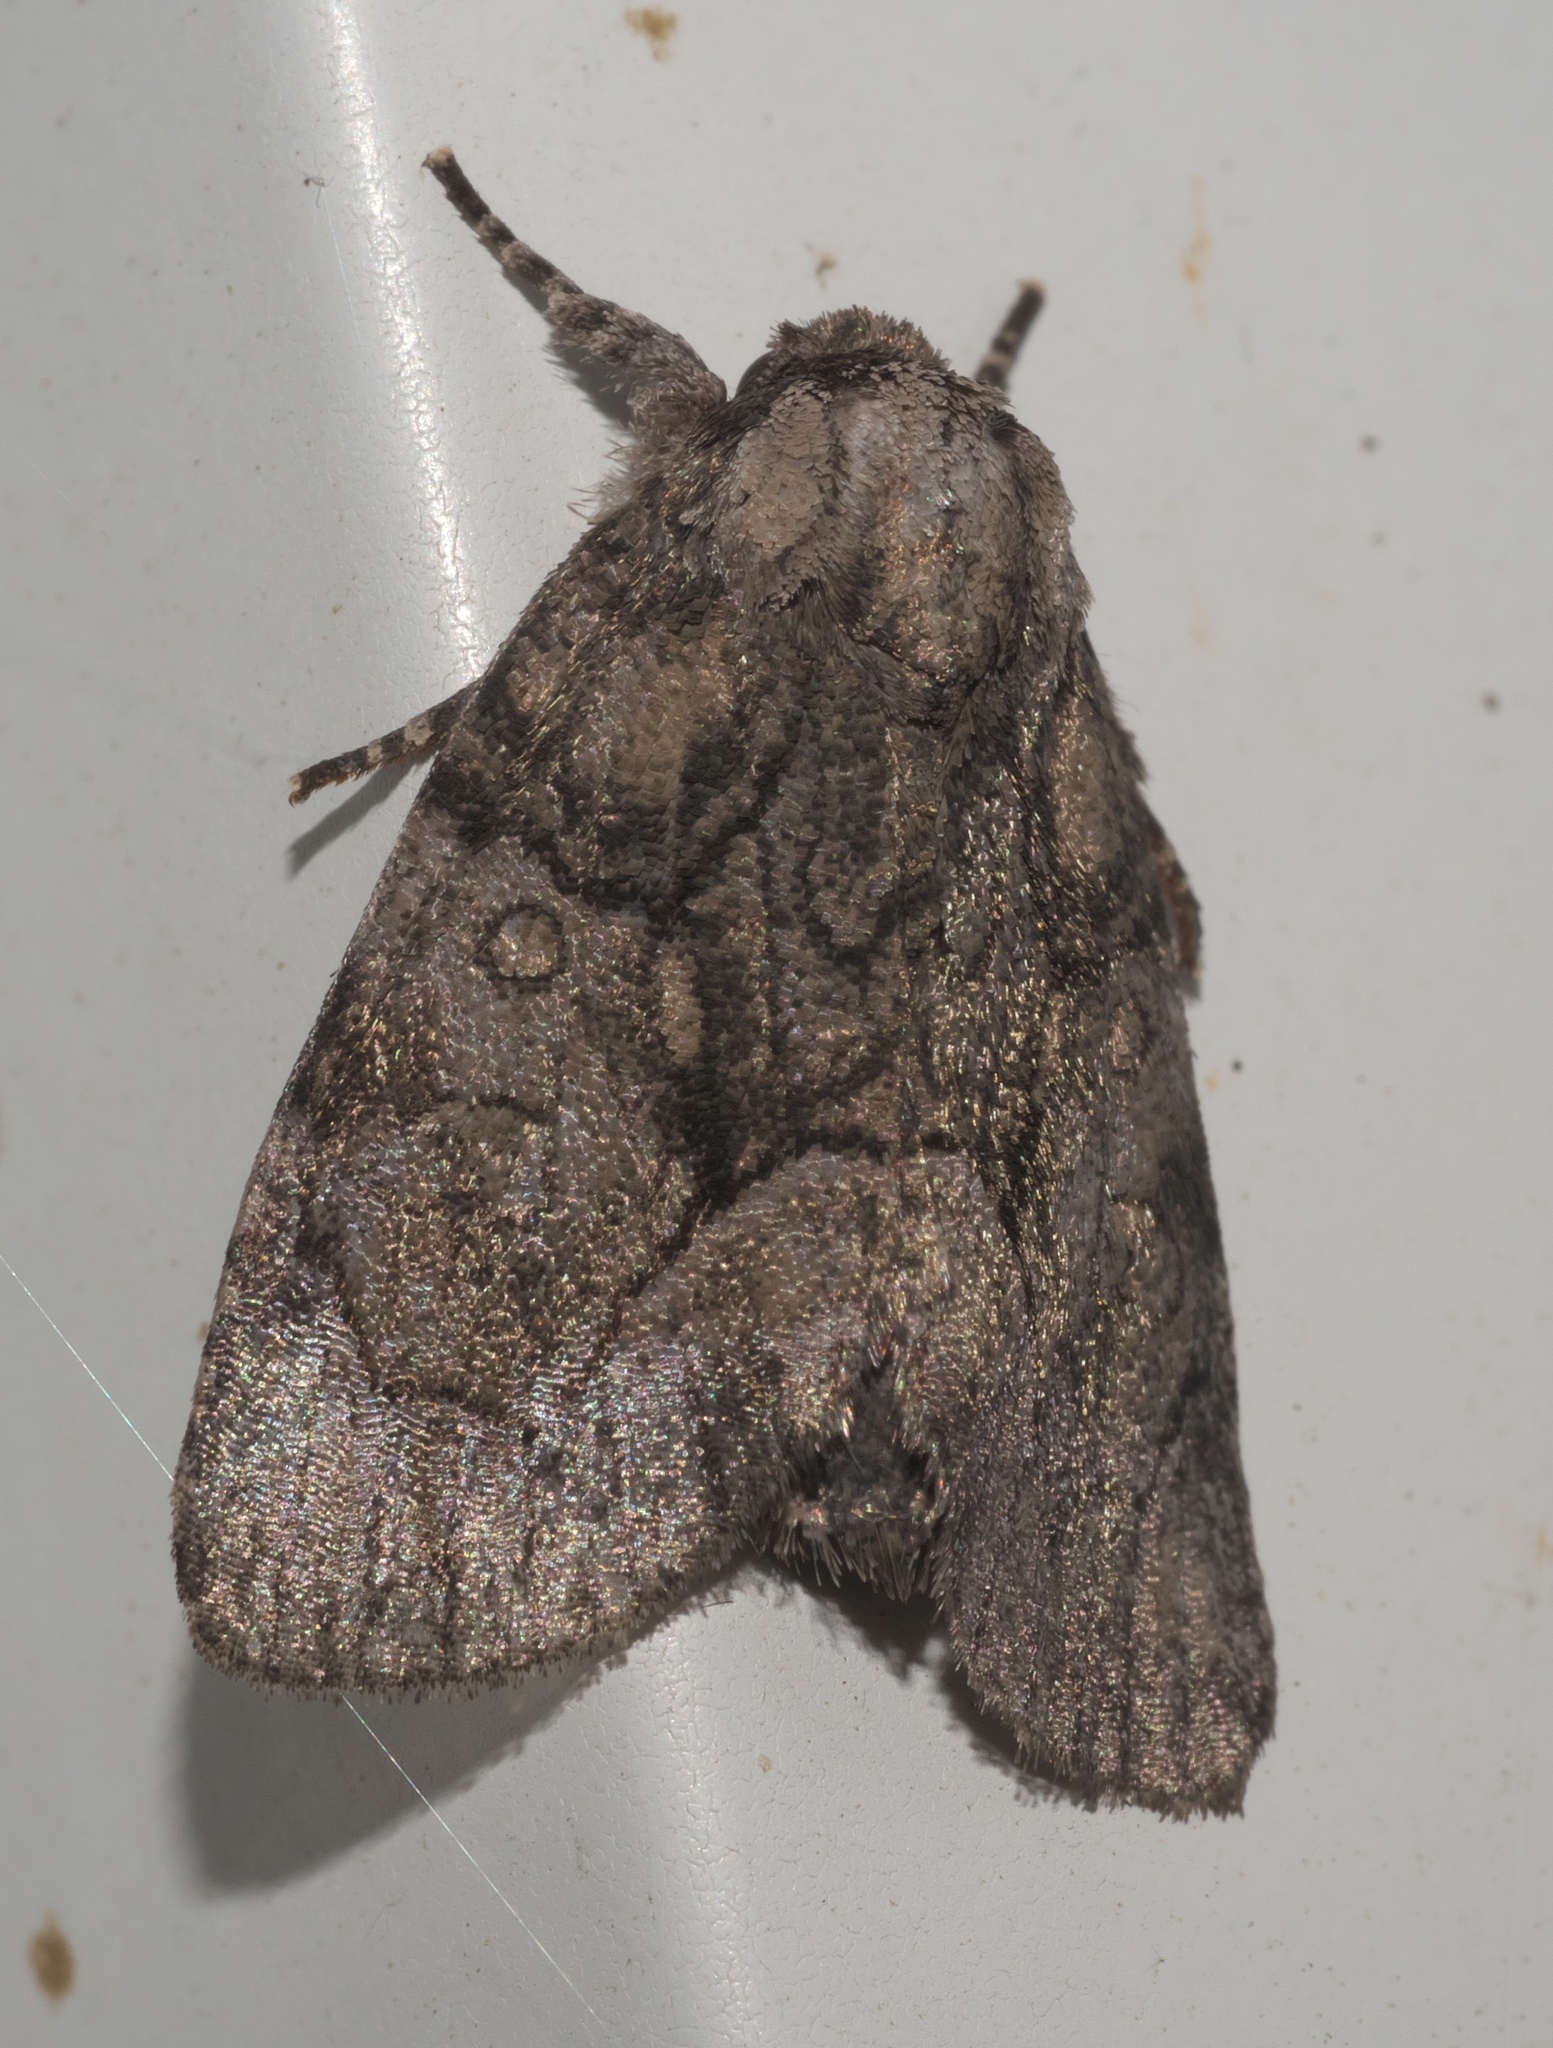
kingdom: Animalia
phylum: Arthropoda
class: Insecta
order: Lepidoptera
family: Noctuidae
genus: Raphia
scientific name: Raphia frater
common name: Brother
